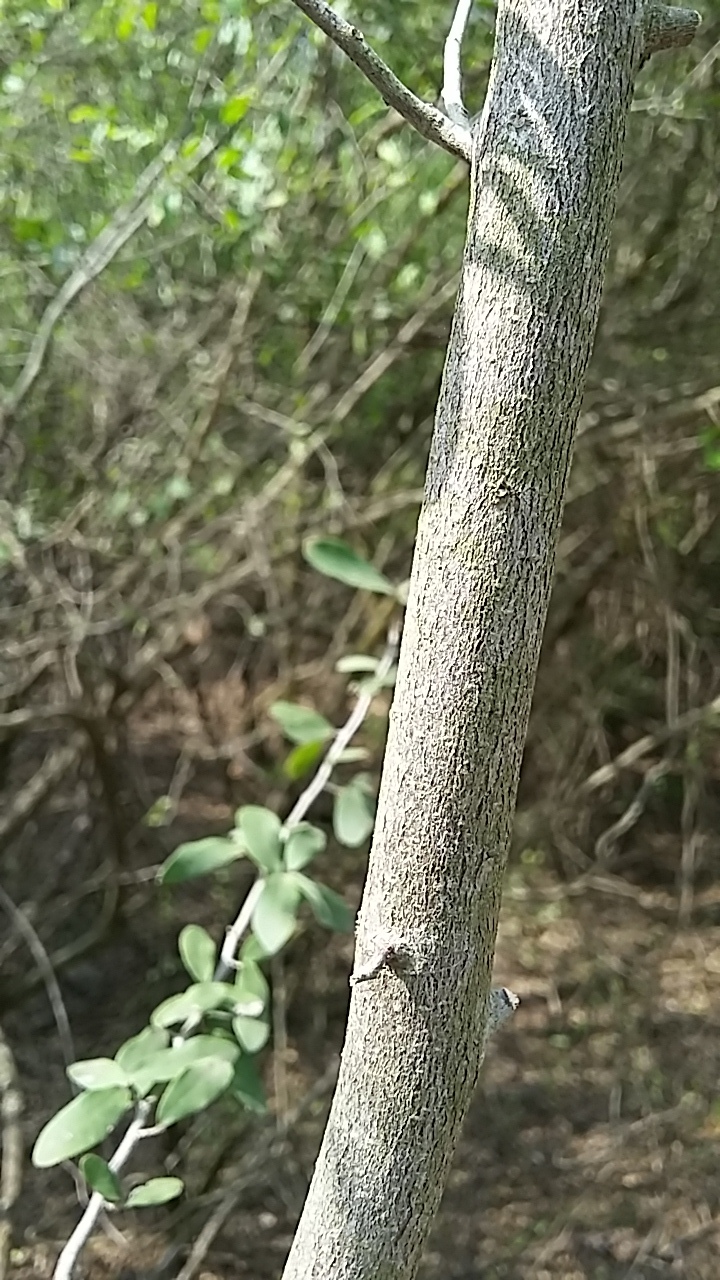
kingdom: Plantae
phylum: Tracheophyta
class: Magnoliopsida
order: Ericales
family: Ebenaceae
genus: Diospyros
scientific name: Diospyros texana
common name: Texas persimmon
